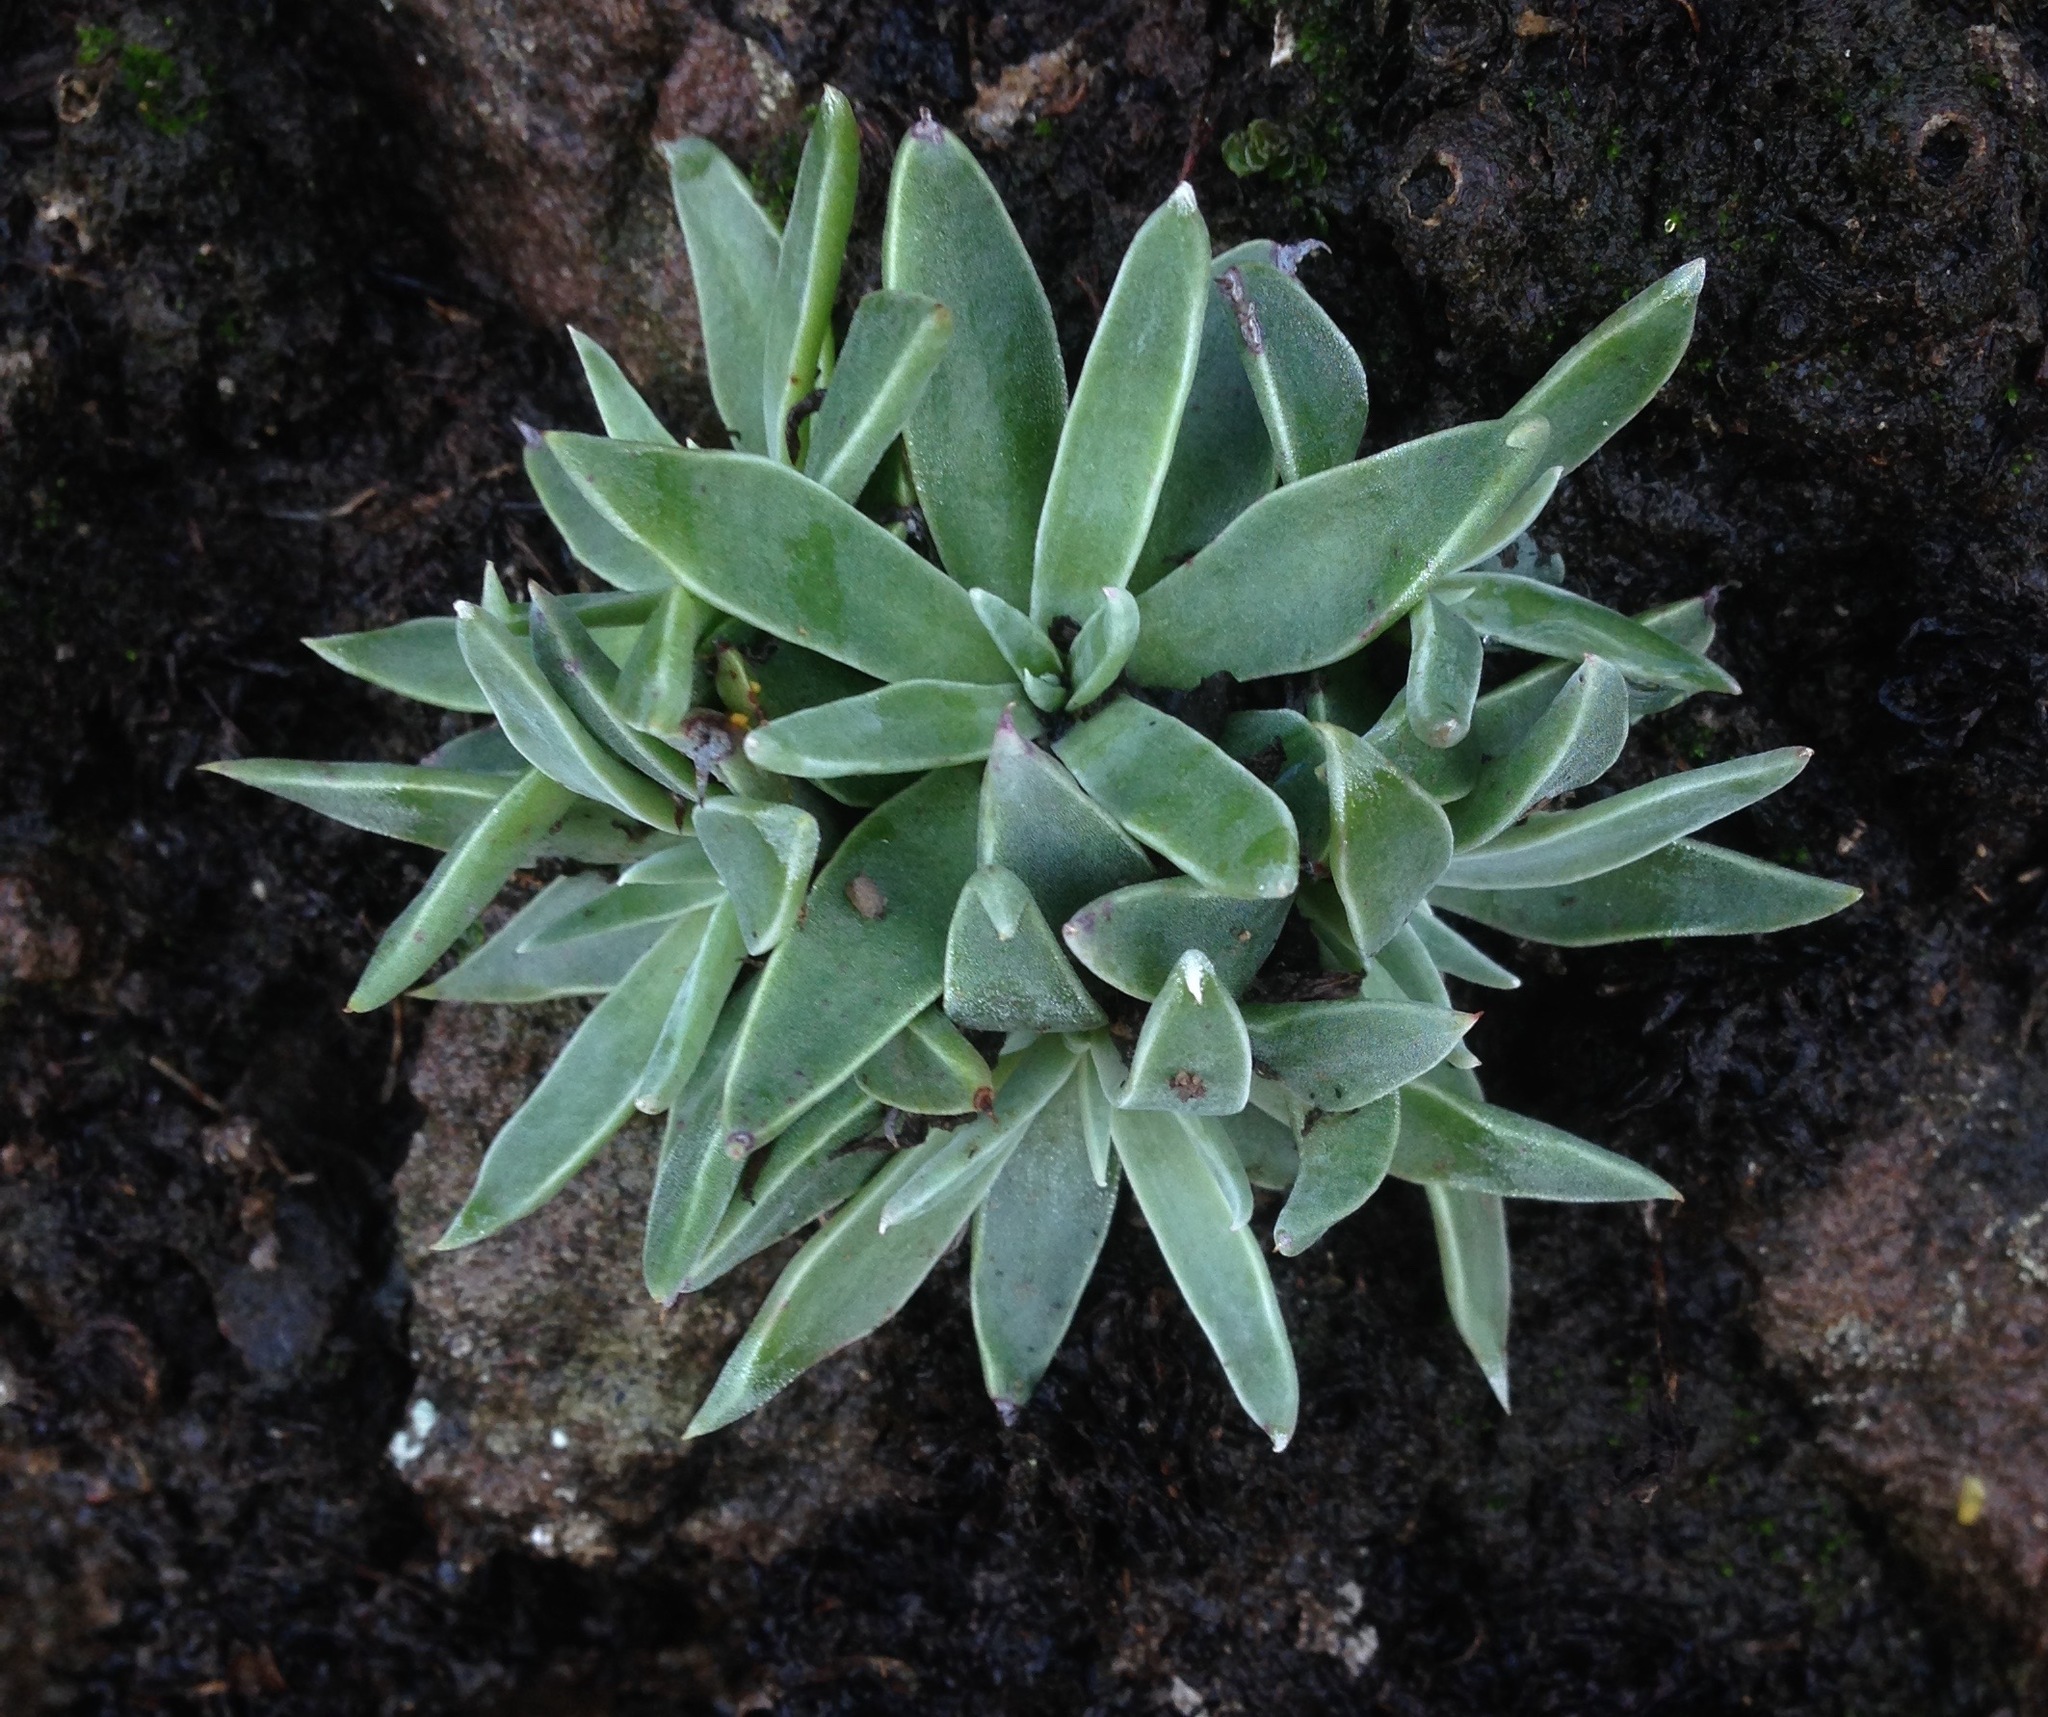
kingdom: Plantae
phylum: Tracheophyta
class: Magnoliopsida
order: Saxifragales
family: Crassulaceae
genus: Dudleya
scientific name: Dudleya verityi
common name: Verity dudleya
